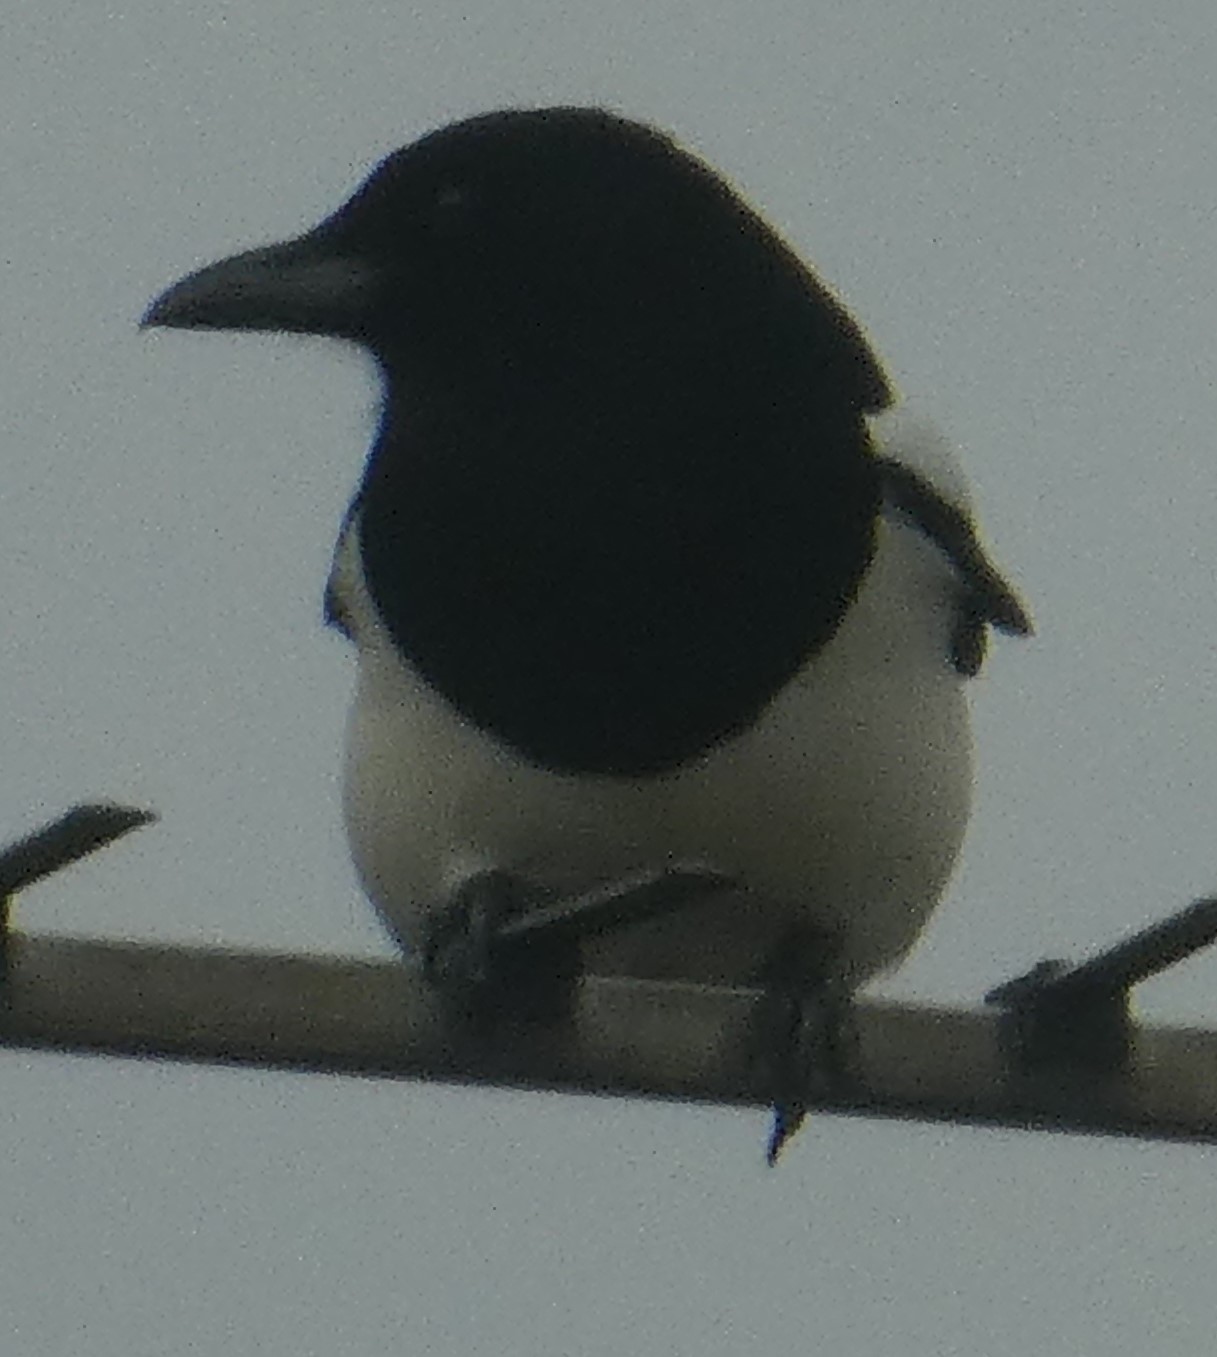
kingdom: Animalia
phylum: Chordata
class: Aves
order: Passeriformes
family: Corvidae
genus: Pica
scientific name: Pica pica
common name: Eurasian magpie
